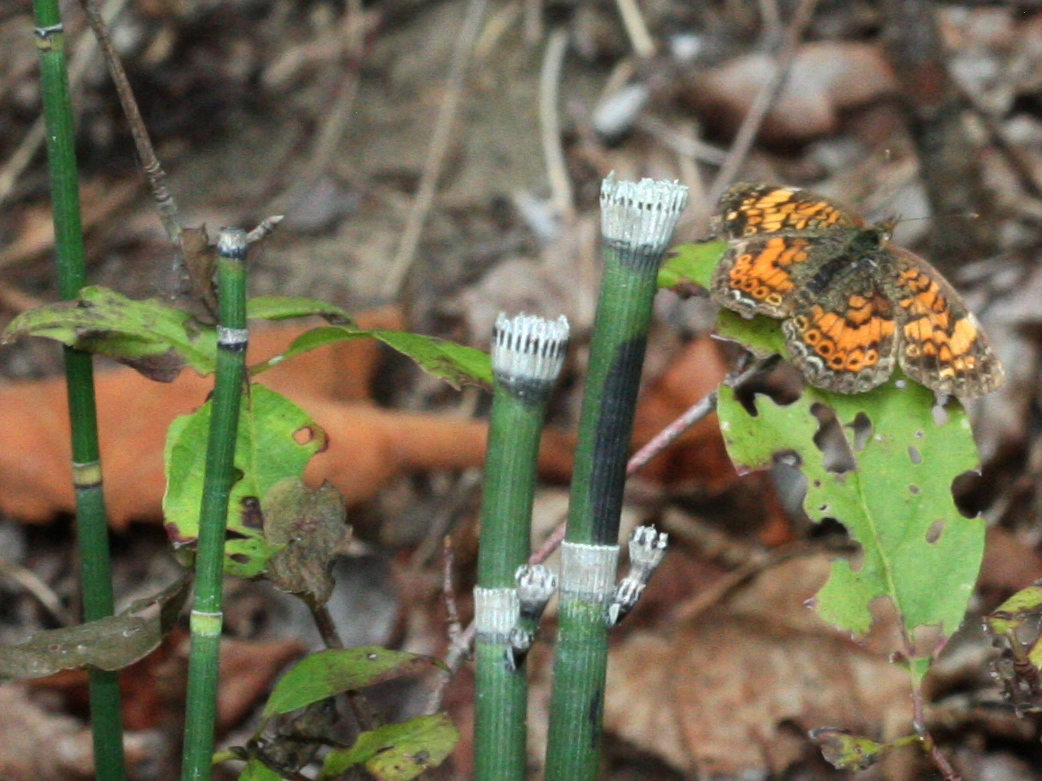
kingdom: Plantae
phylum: Tracheophyta
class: Polypodiopsida
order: Equisetales
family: Equisetaceae
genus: Equisetum
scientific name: Equisetum praealtum
